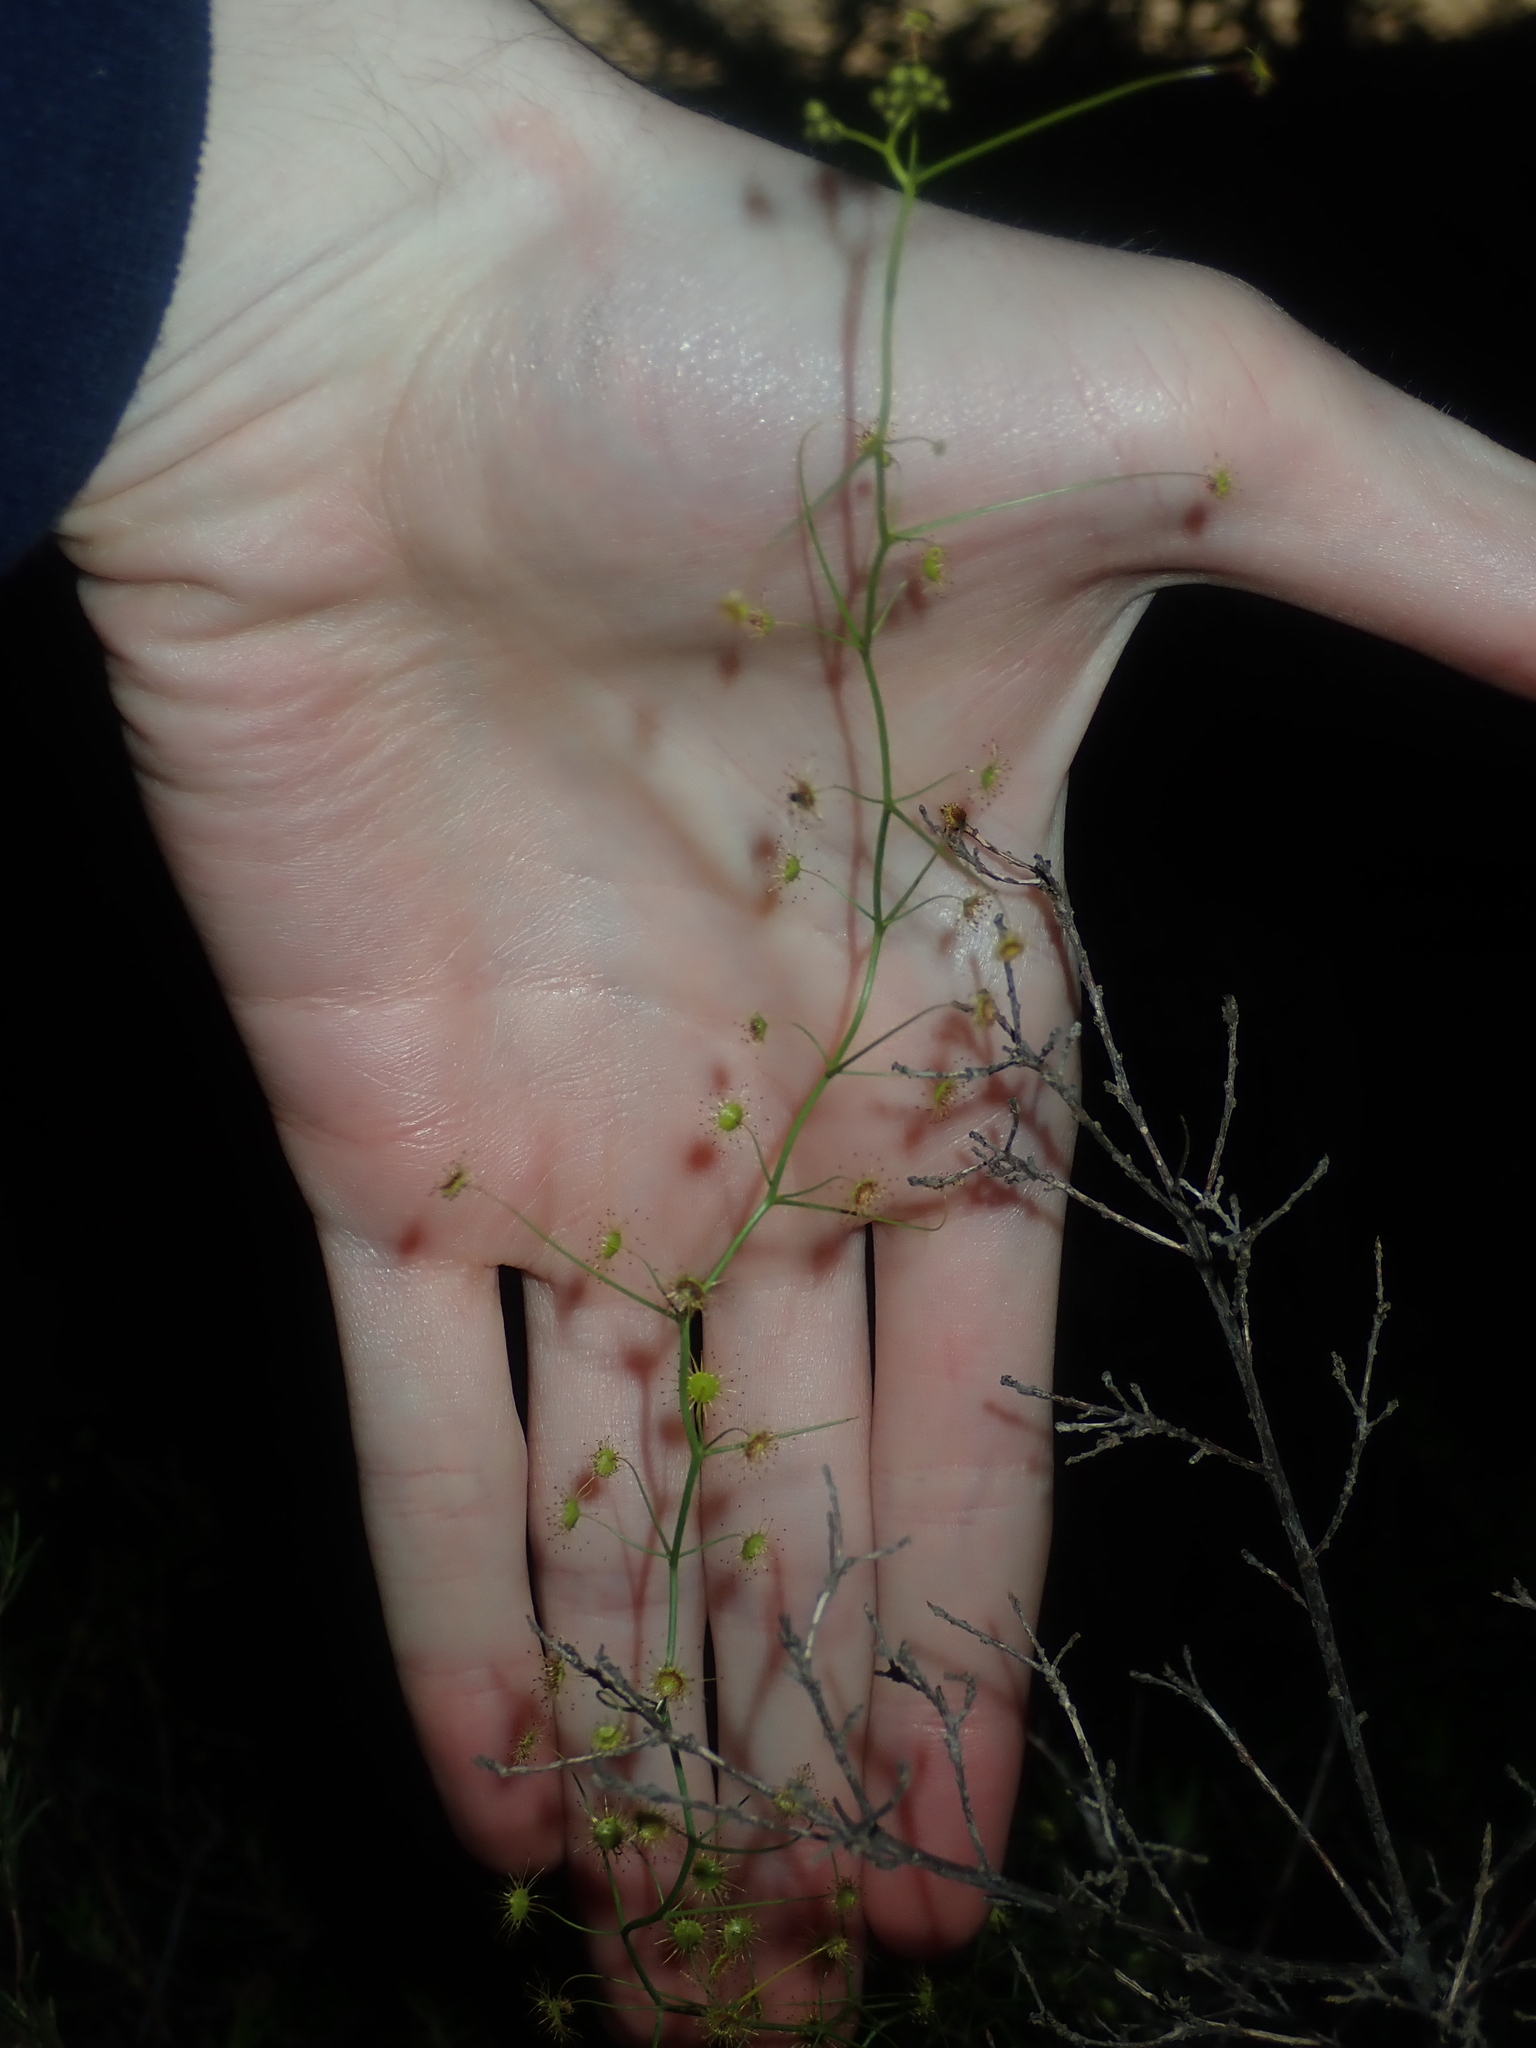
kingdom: Plantae
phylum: Tracheophyta
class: Magnoliopsida
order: Caryophyllales
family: Droseraceae
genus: Drosera
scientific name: Drosera pallida
